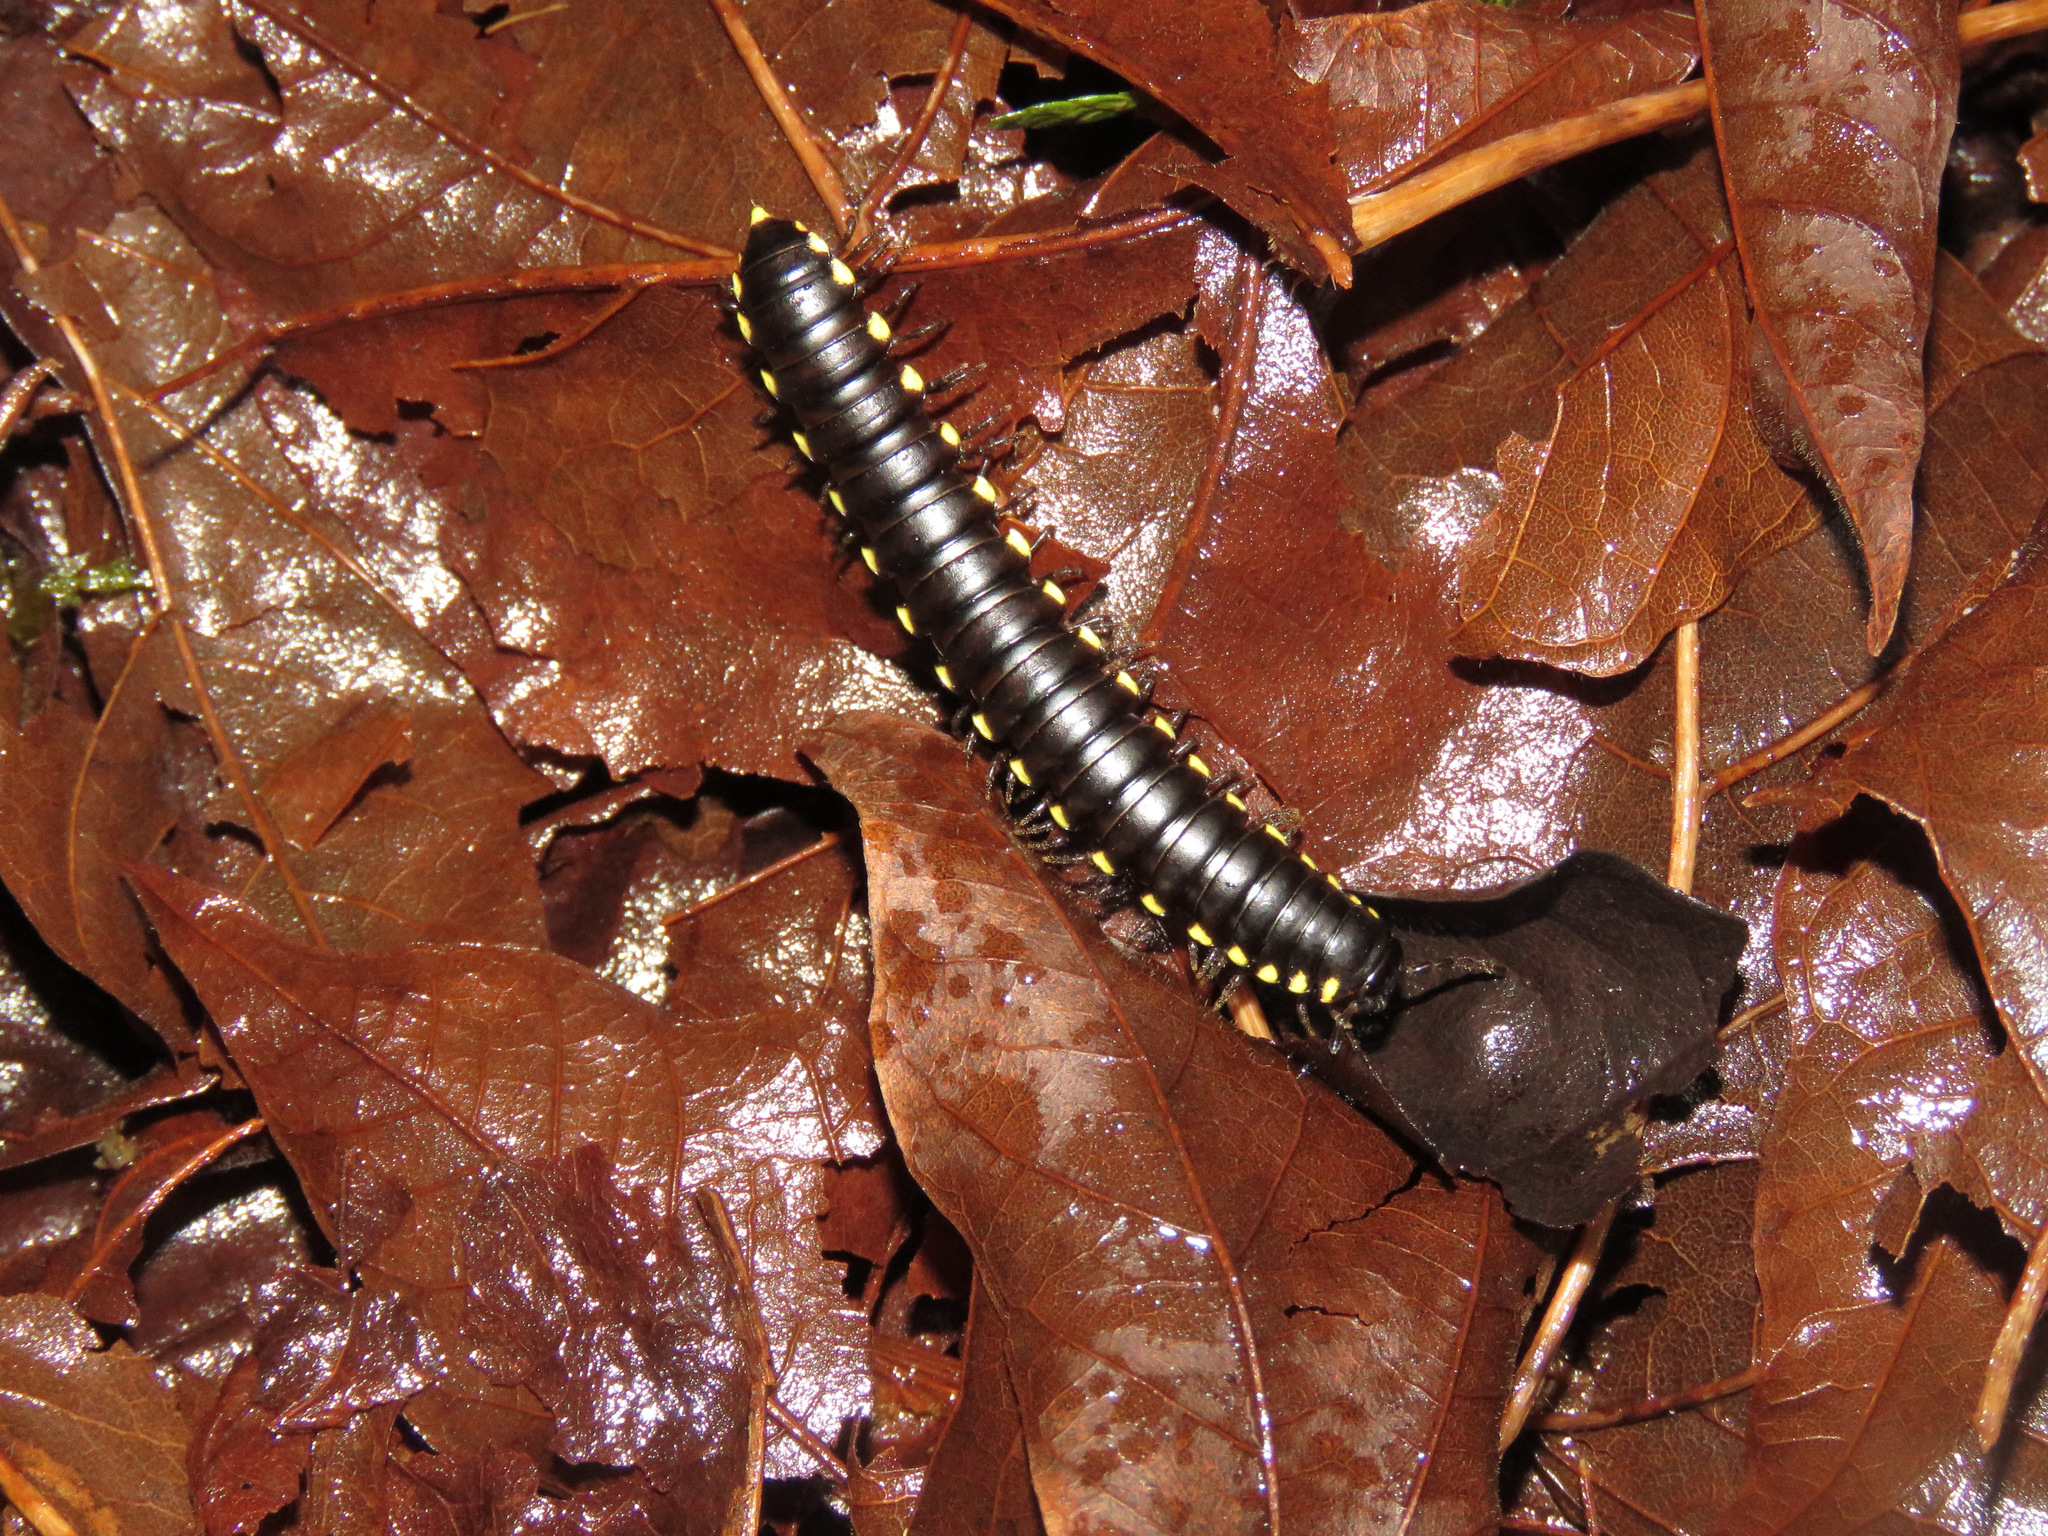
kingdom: Animalia
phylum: Arthropoda
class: Diplopoda
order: Polydesmida
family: Xystodesmidae
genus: Harpaphe
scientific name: Harpaphe haydeniana
